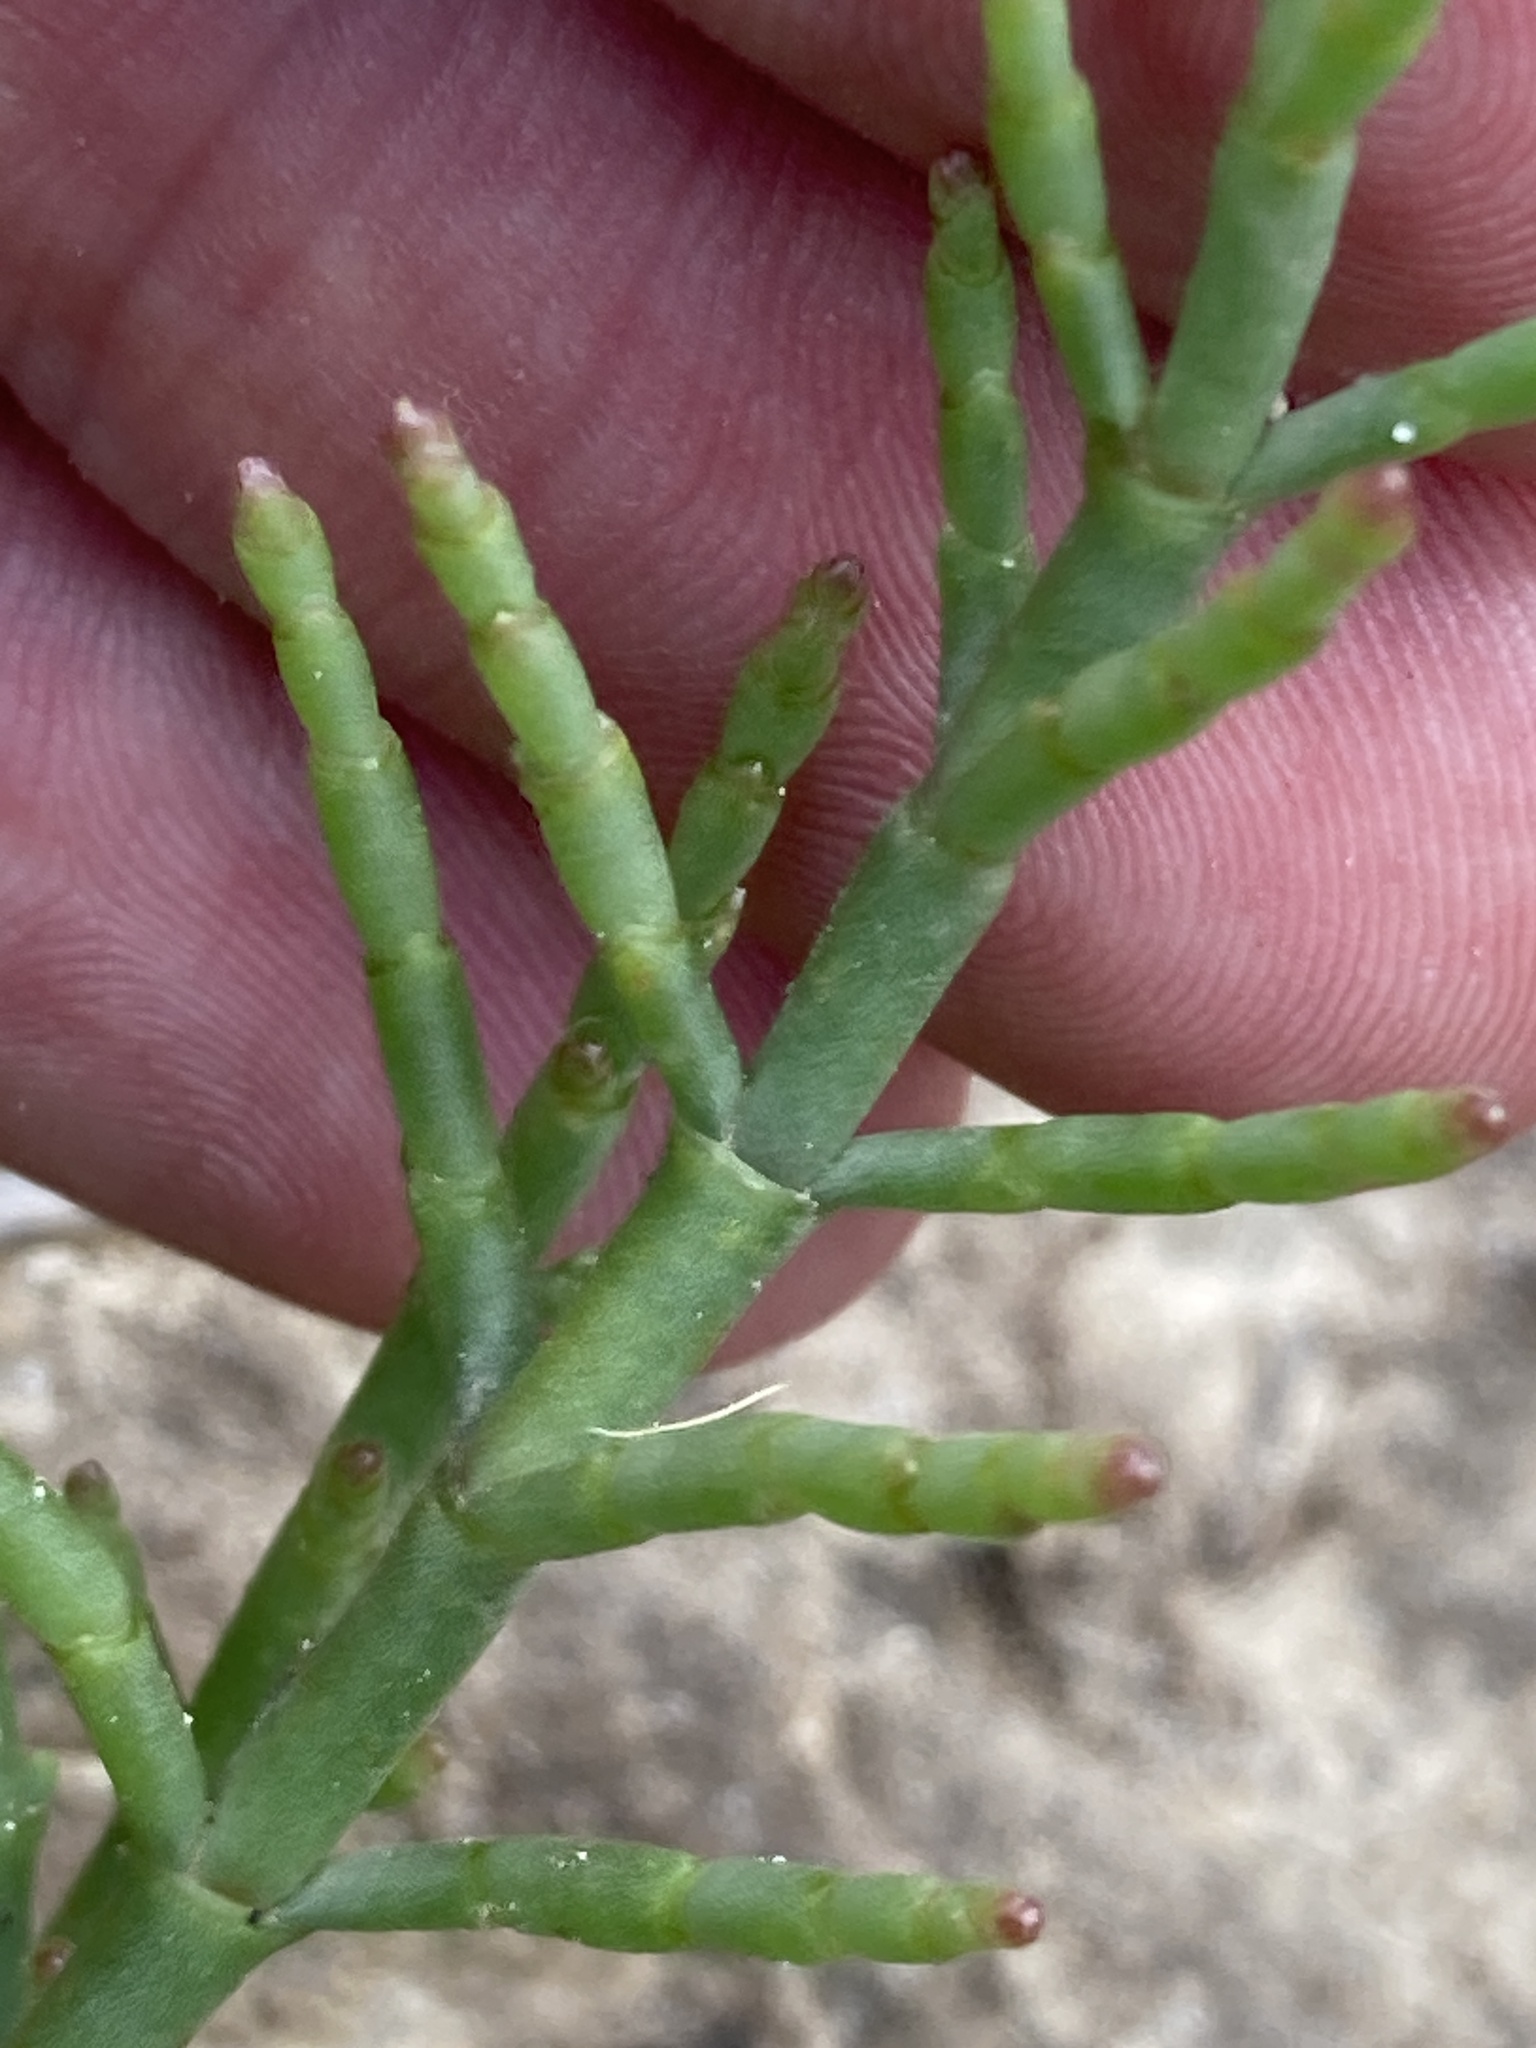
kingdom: Plantae
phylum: Tracheophyta
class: Magnoliopsida
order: Caryophyllales
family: Amaranthaceae
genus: Salicornia
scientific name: Salicornia perennans
